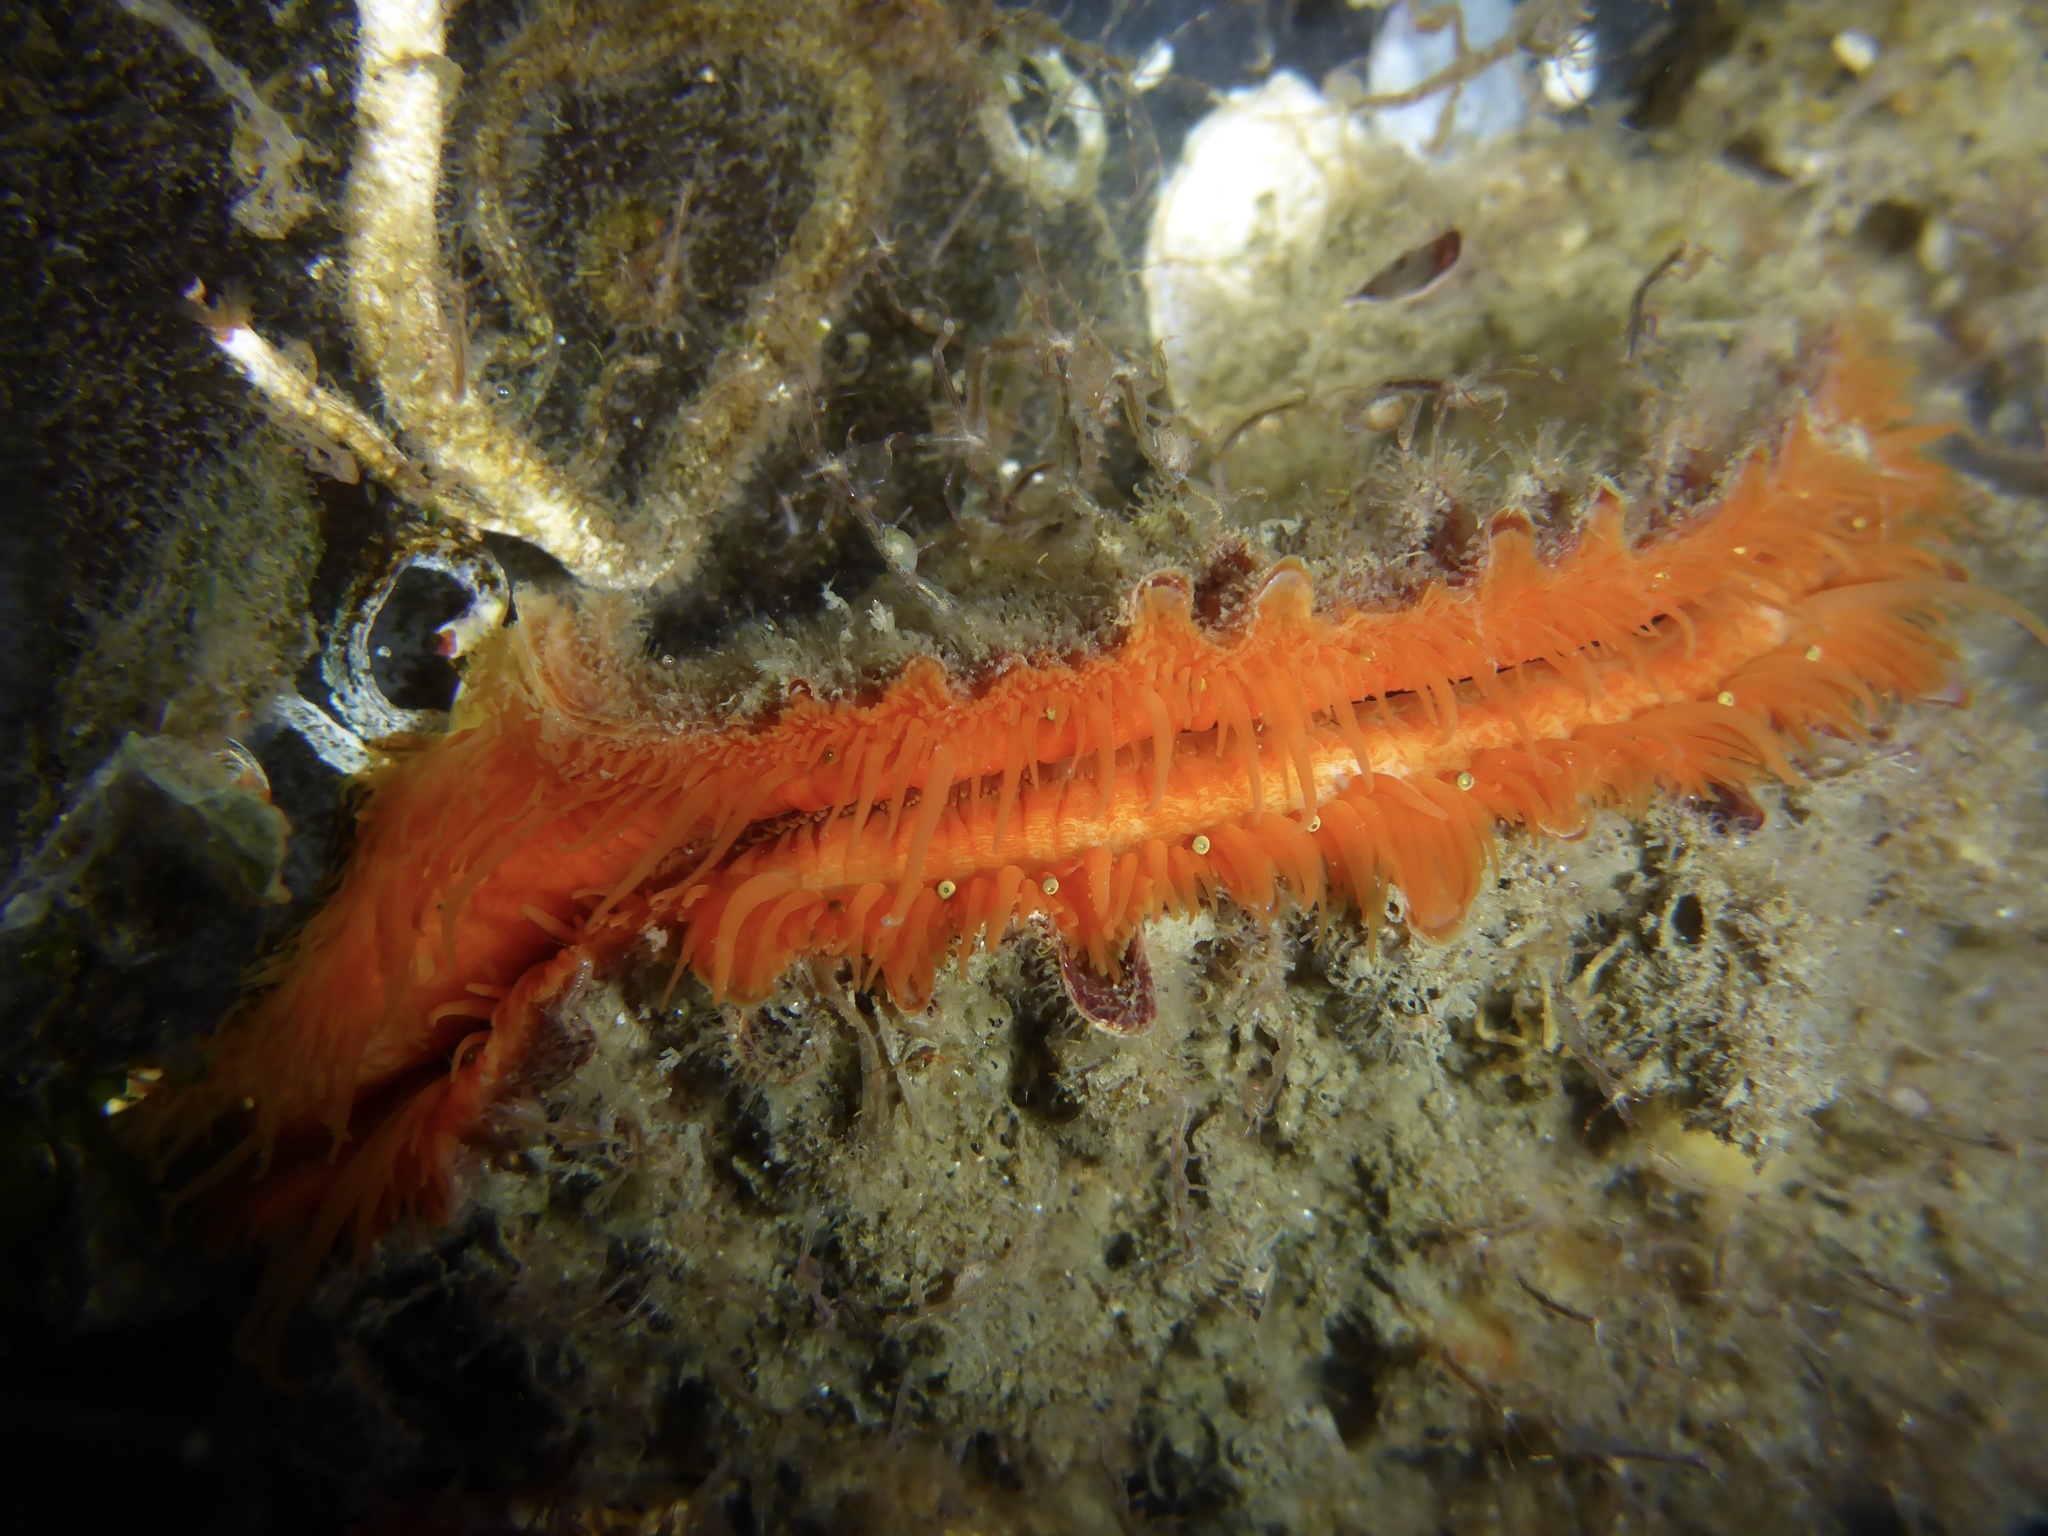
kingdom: Animalia
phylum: Mollusca
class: Bivalvia
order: Pectinida
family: Pectinidae
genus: Crassadoma
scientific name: Crassadoma gigantea
